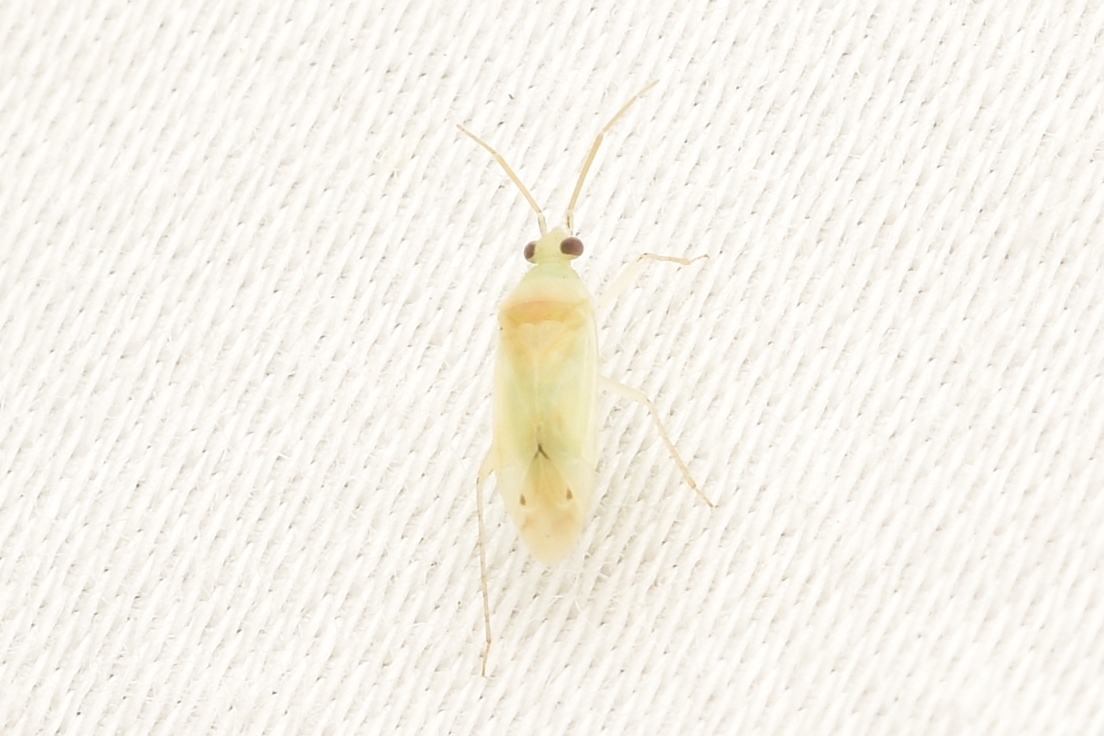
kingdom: Animalia
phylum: Arthropoda
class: Insecta
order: Hemiptera
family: Miridae
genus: Americodema
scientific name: Americodema nigrolineatum
